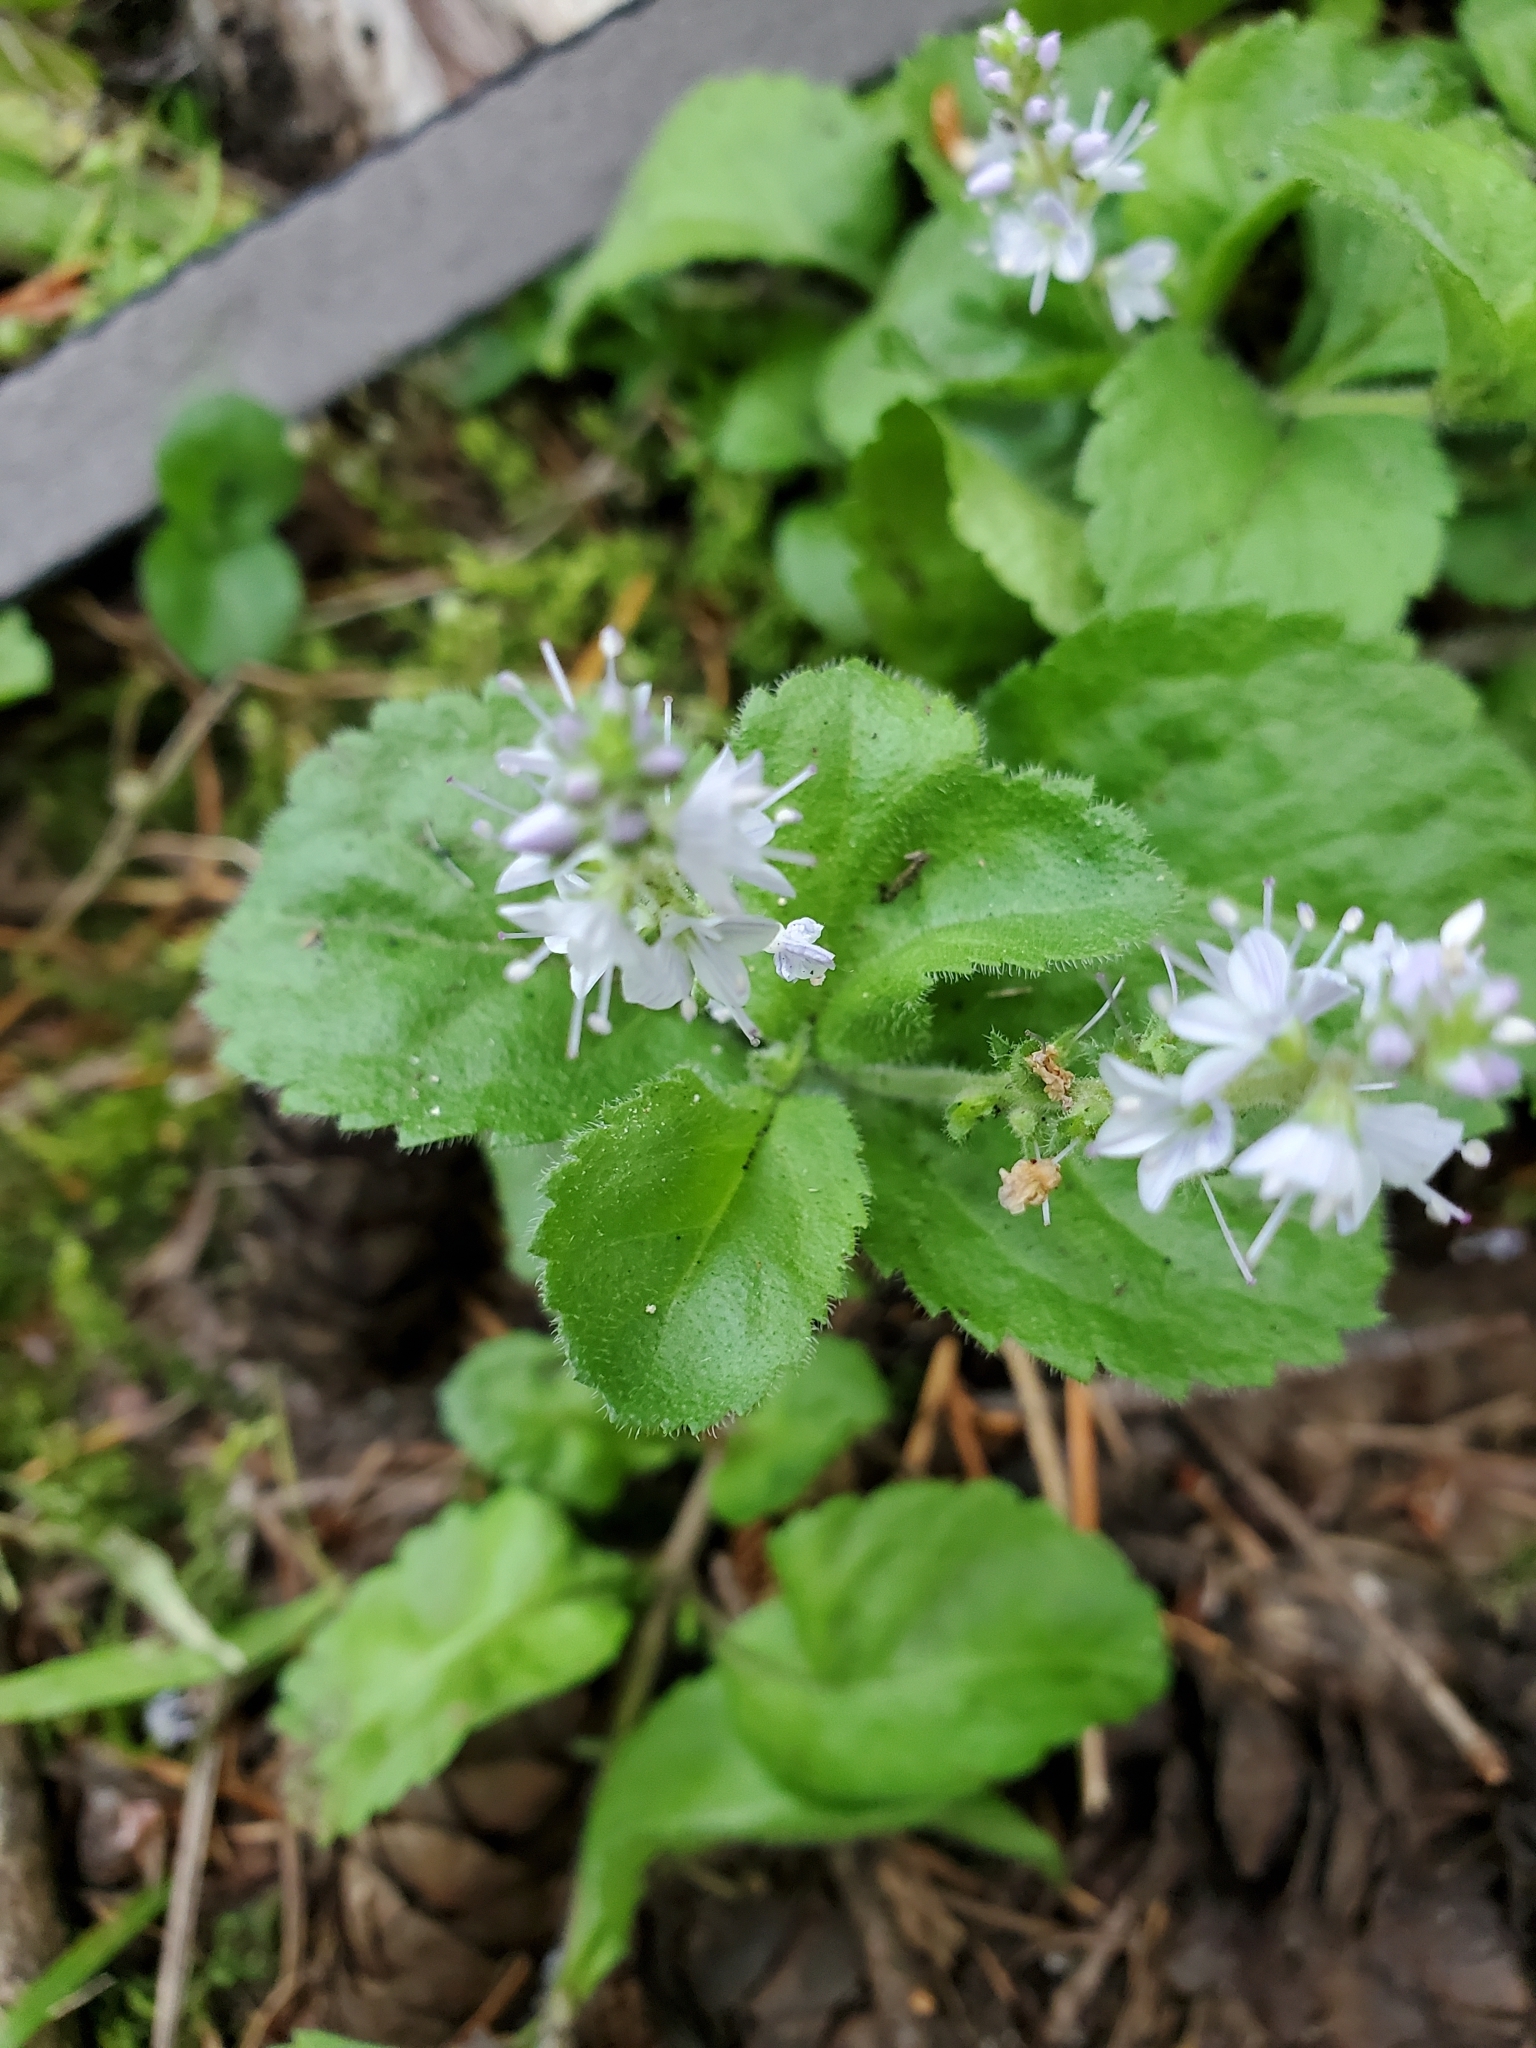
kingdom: Plantae
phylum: Tracheophyta
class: Magnoliopsida
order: Lamiales
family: Plantaginaceae
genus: Veronica
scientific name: Veronica officinalis
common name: Common speedwell
